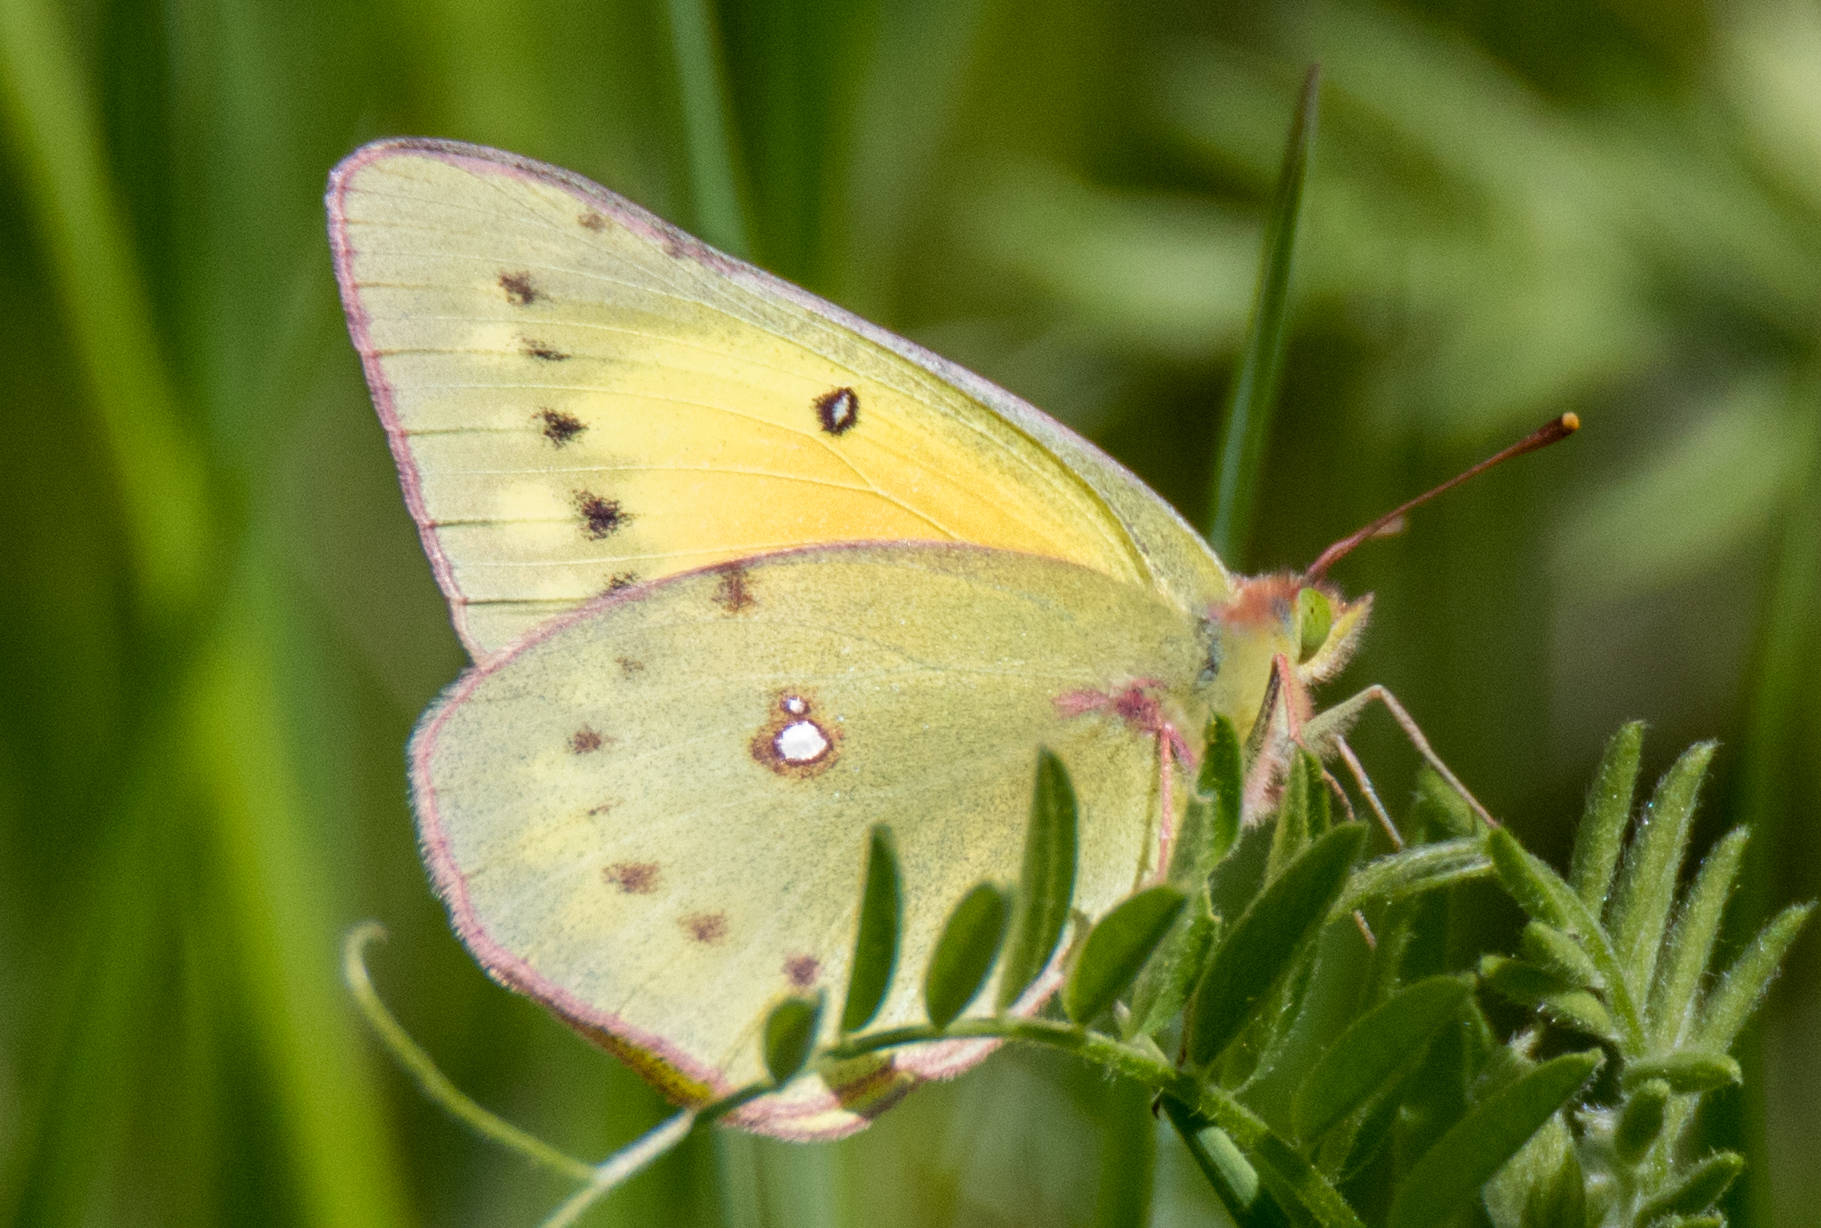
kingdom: Animalia
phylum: Arthropoda
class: Insecta
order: Lepidoptera
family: Pieridae
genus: Colias
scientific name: Colias eurytheme
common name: Alfalfa butterfly
